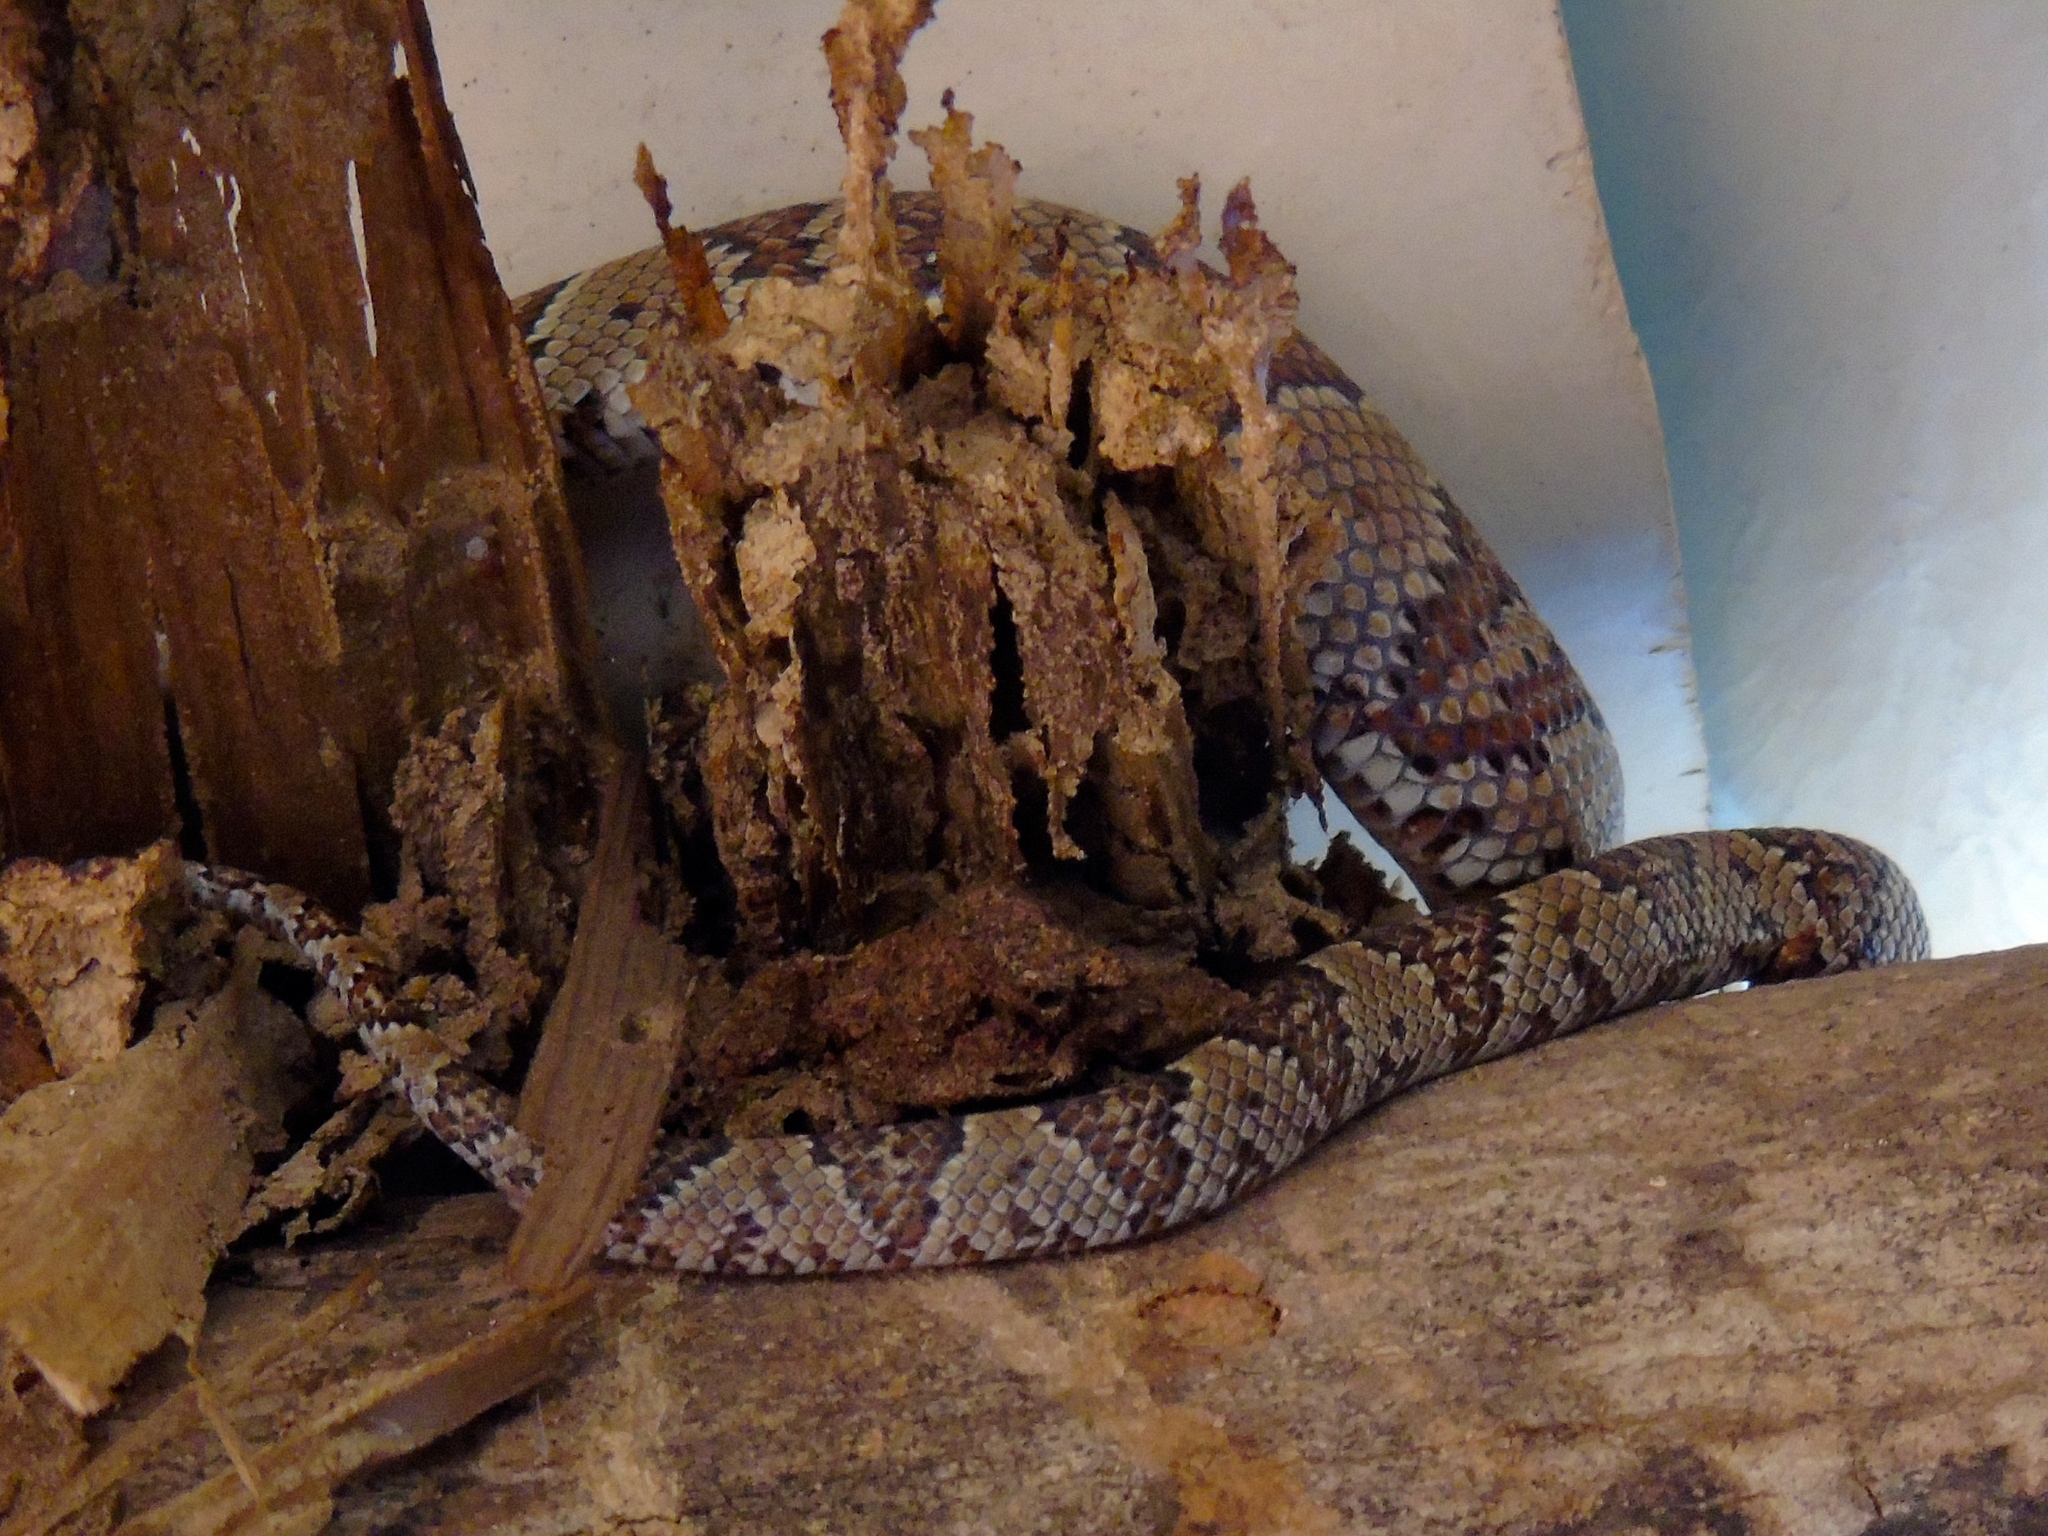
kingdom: Animalia
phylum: Chordata
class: Squamata
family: Colubridae
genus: Trimorphodon
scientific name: Trimorphodon paucimaculatus
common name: Sinaloan lyresnake
